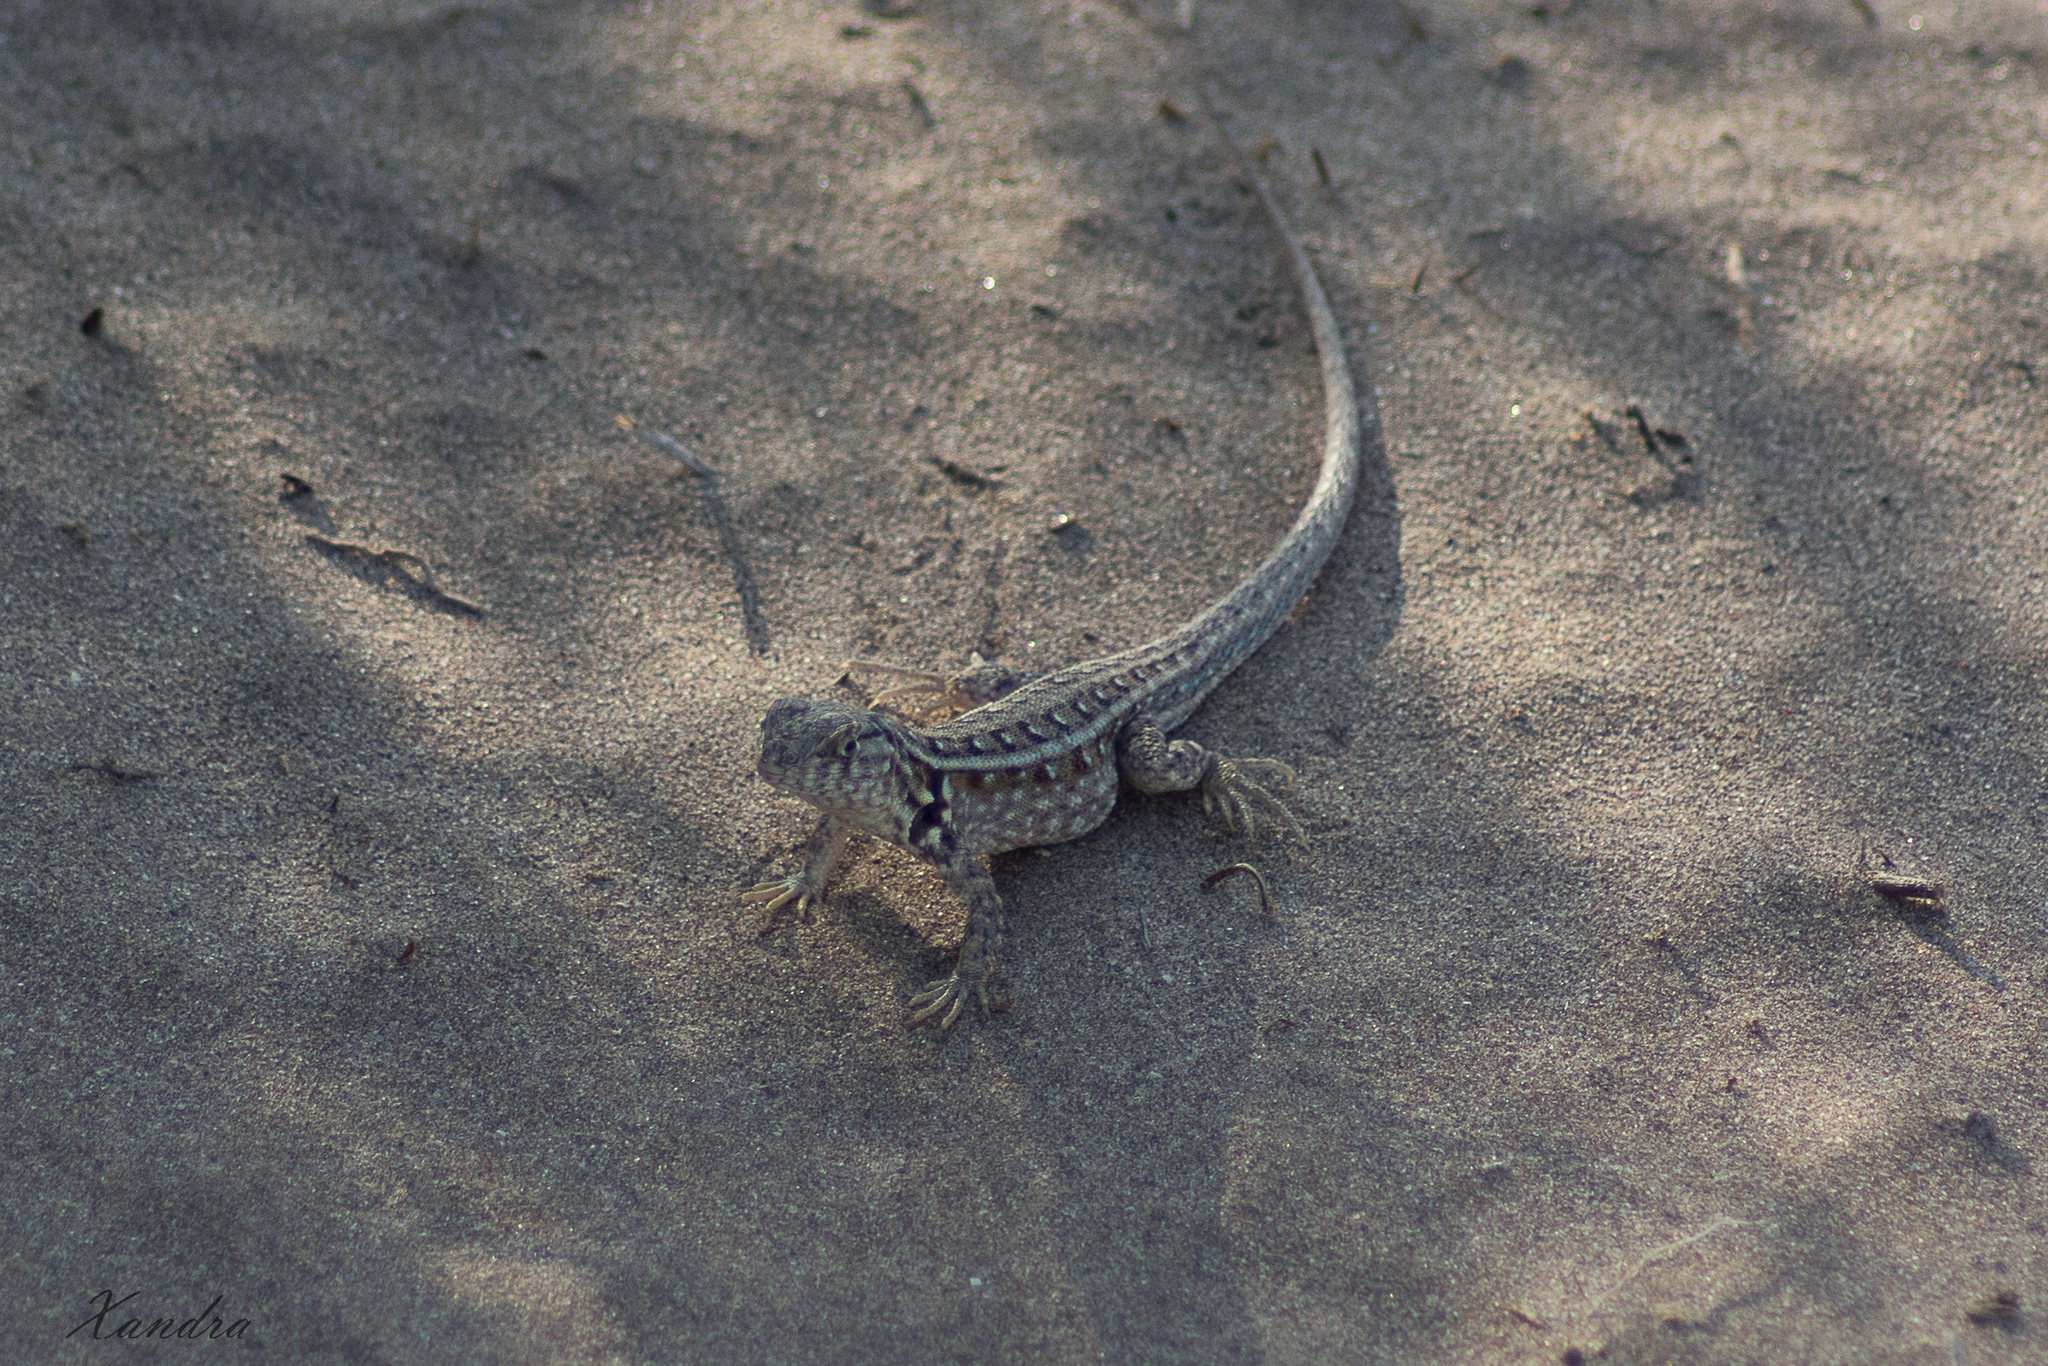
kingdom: Animalia
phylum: Chordata
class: Squamata
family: Liolaemidae
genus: Liolaemus
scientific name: Liolaemus grosseorum
